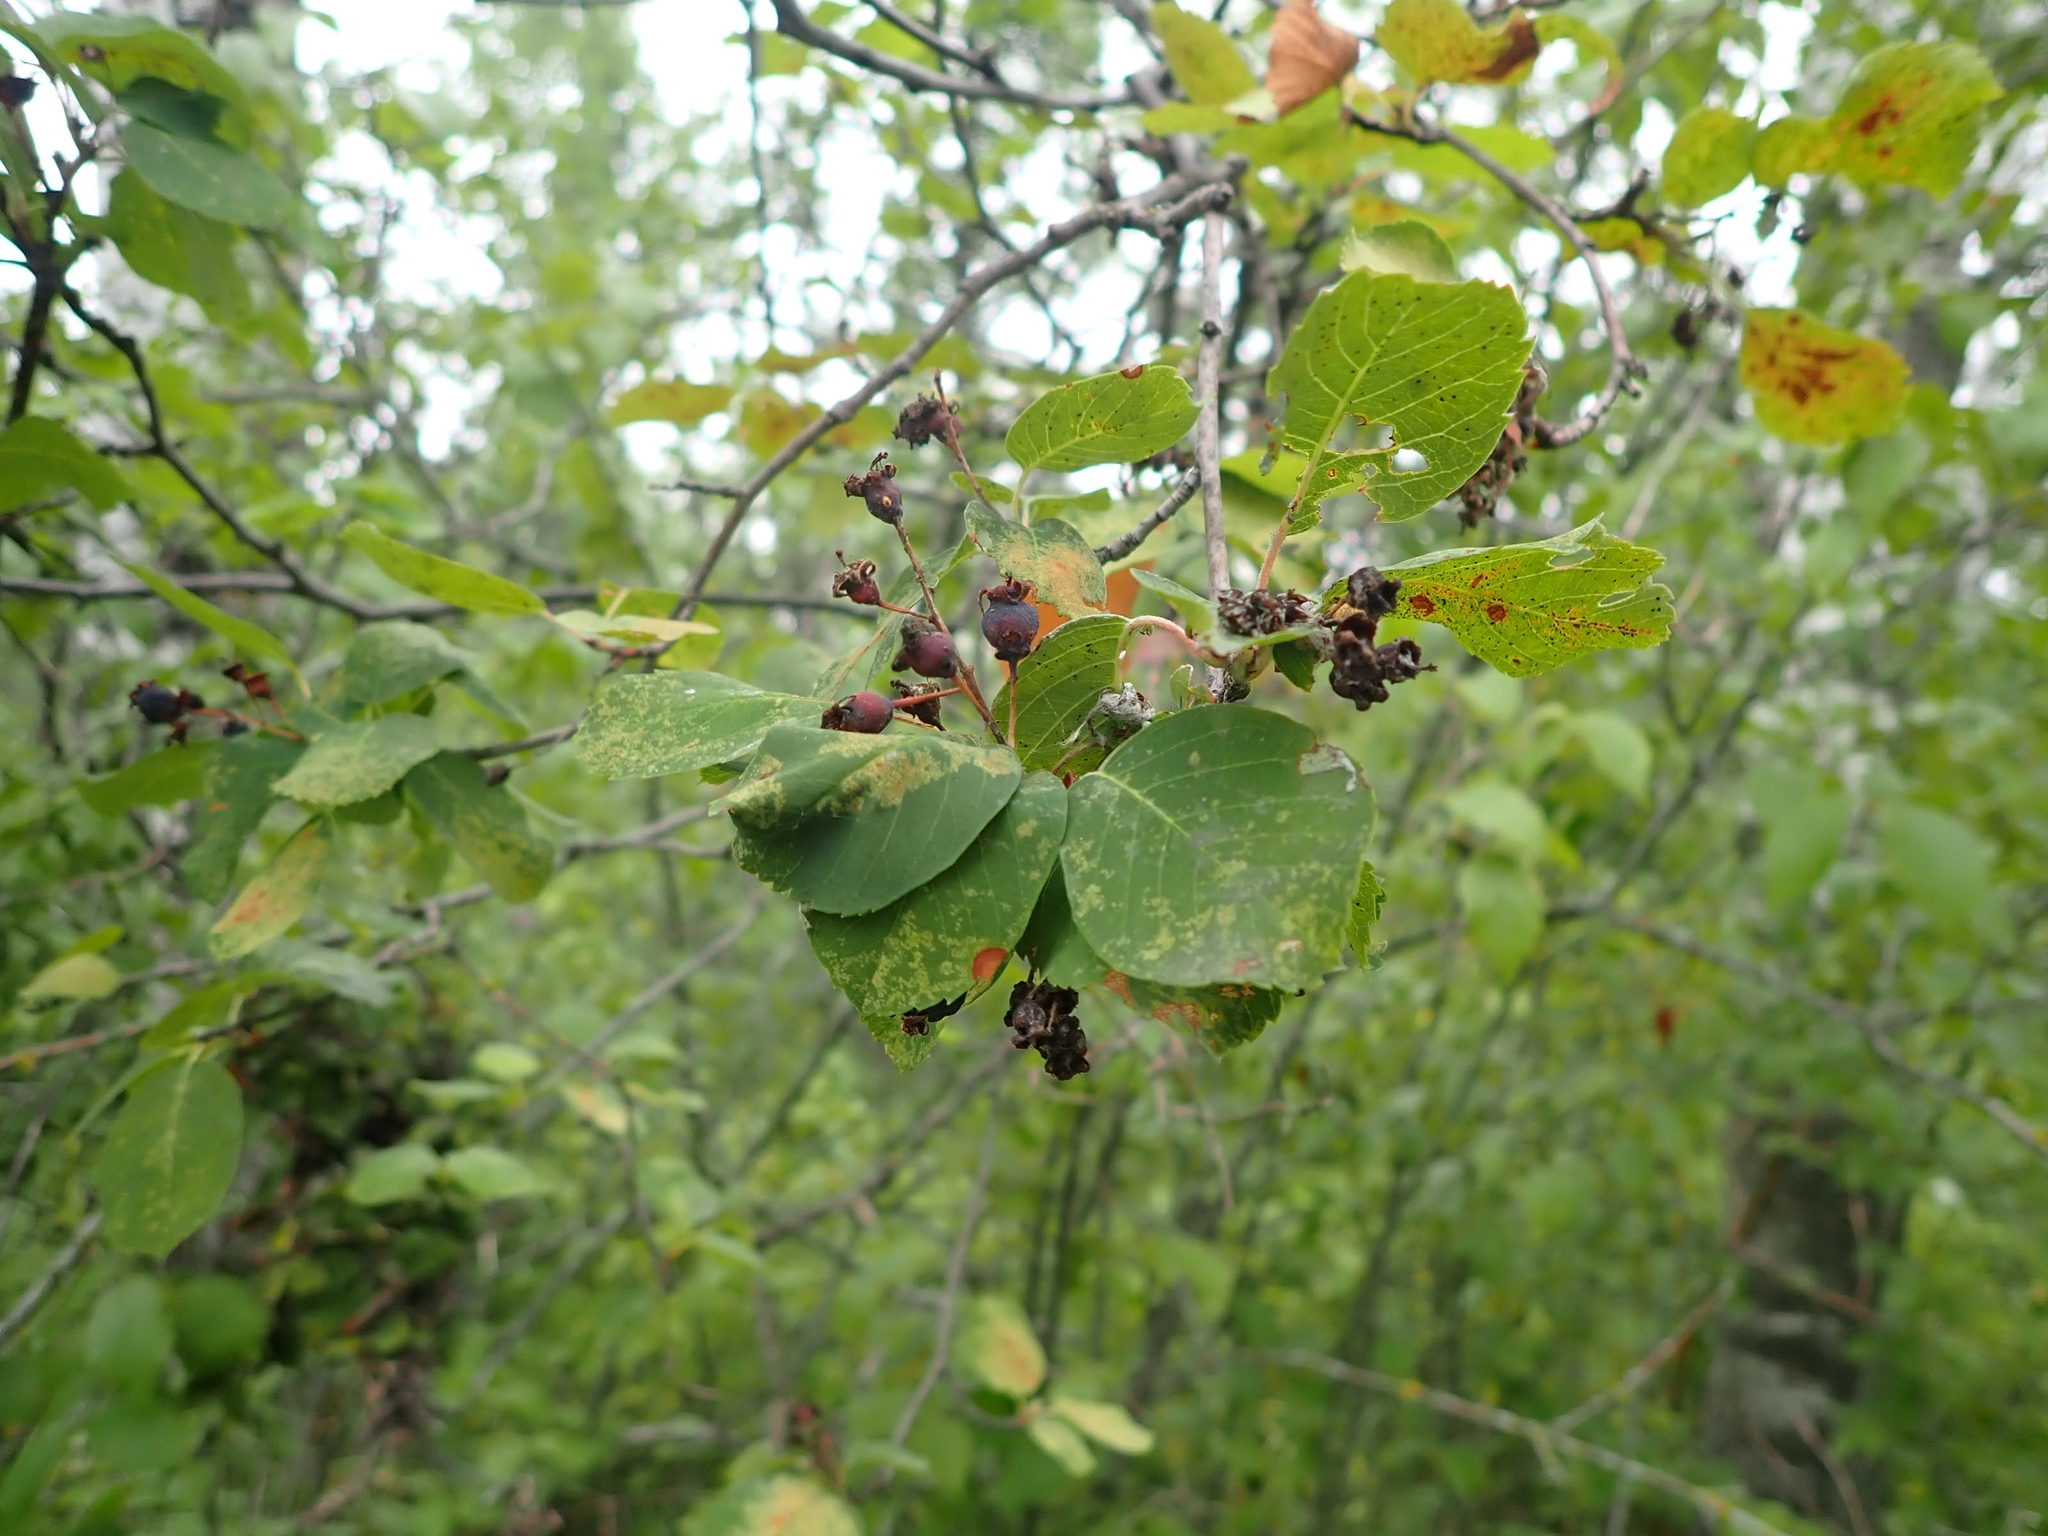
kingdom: Plantae
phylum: Tracheophyta
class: Magnoliopsida
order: Rosales
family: Rosaceae
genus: Amelanchier
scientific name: Amelanchier alnifolia
